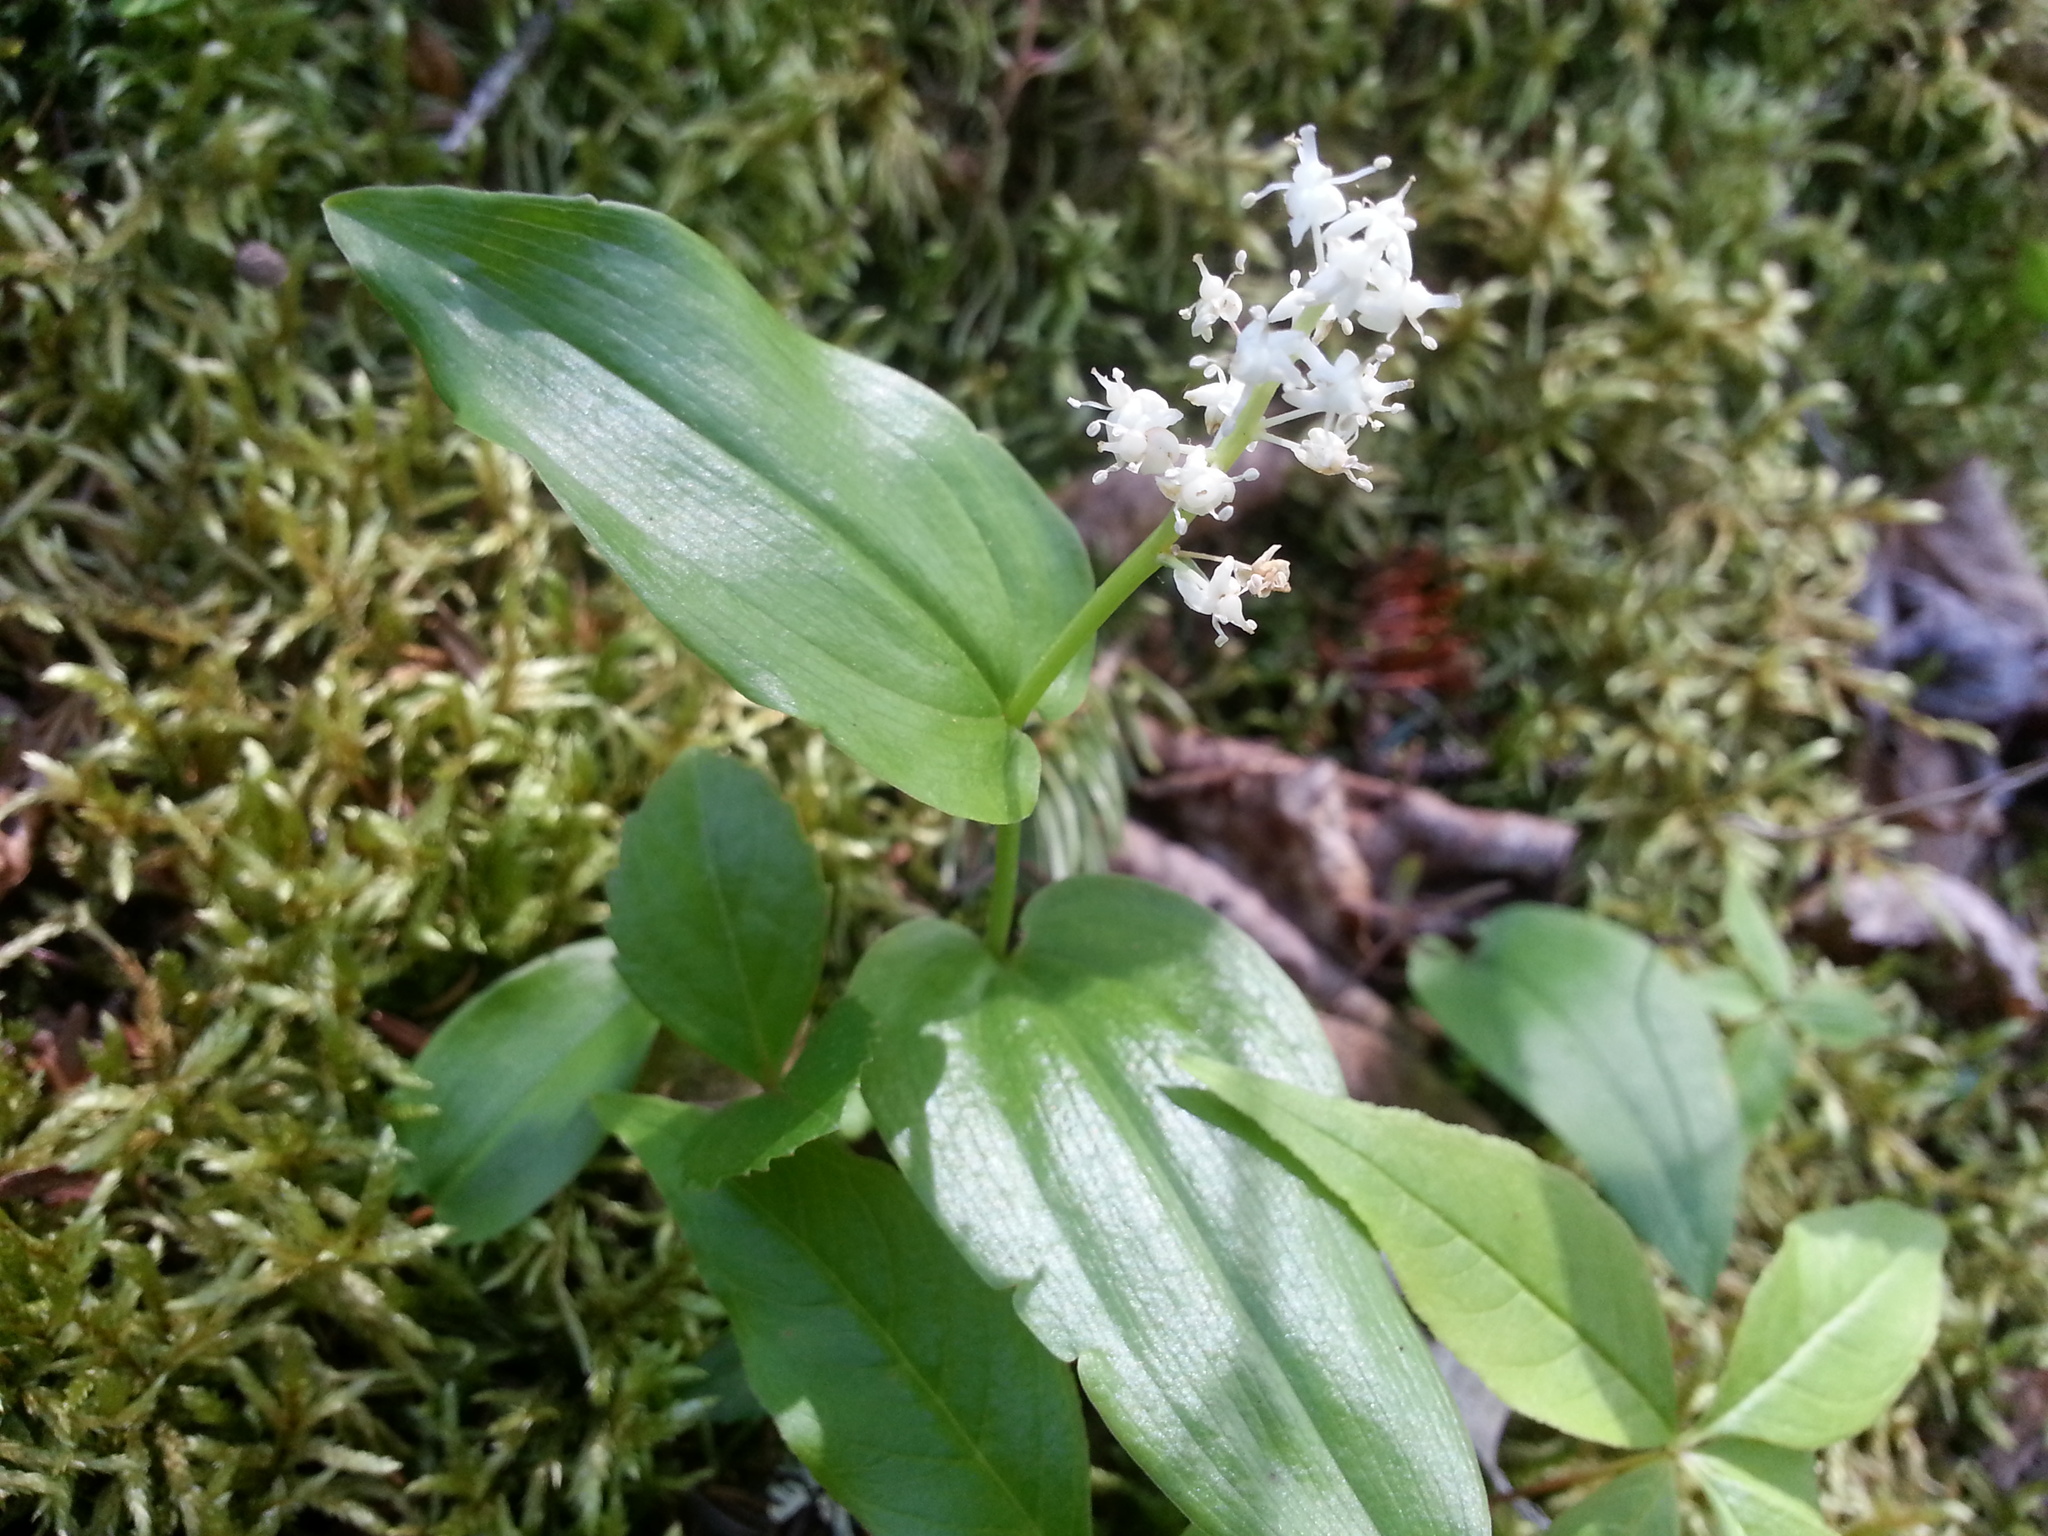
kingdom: Plantae
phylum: Tracheophyta
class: Liliopsida
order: Asparagales
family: Asparagaceae
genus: Maianthemum
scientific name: Maianthemum canadense
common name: False lily-of-the-valley
